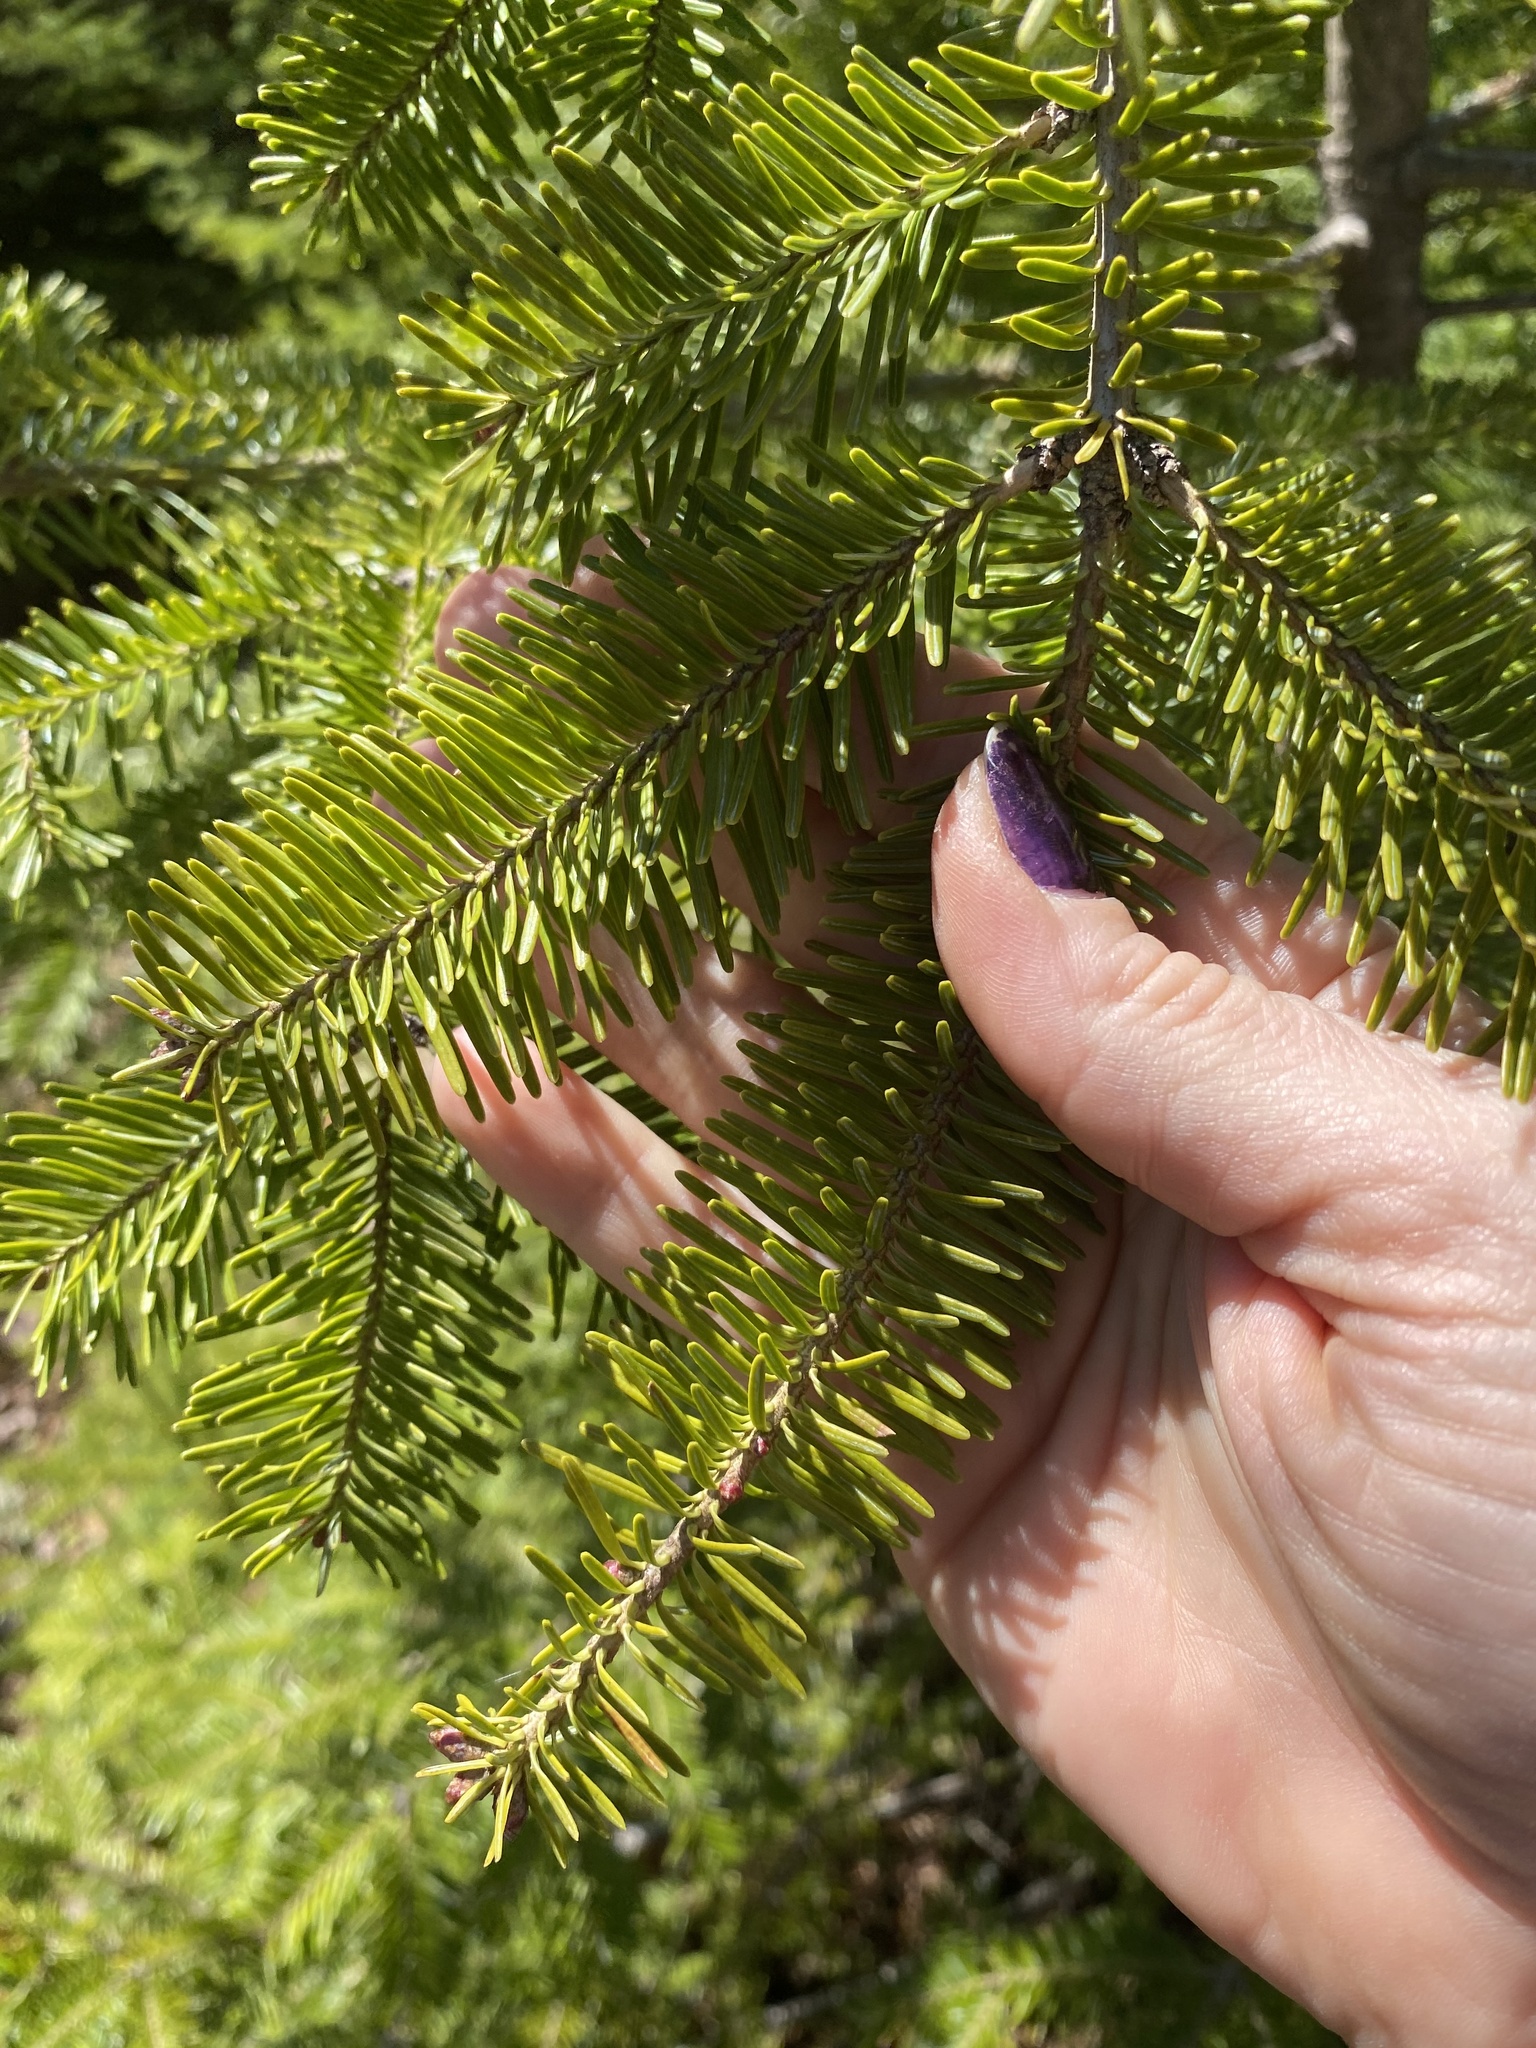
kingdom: Plantae
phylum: Tracheophyta
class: Pinopsida
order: Pinales
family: Pinaceae
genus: Abies
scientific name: Abies balsamea
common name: Balsam fir
